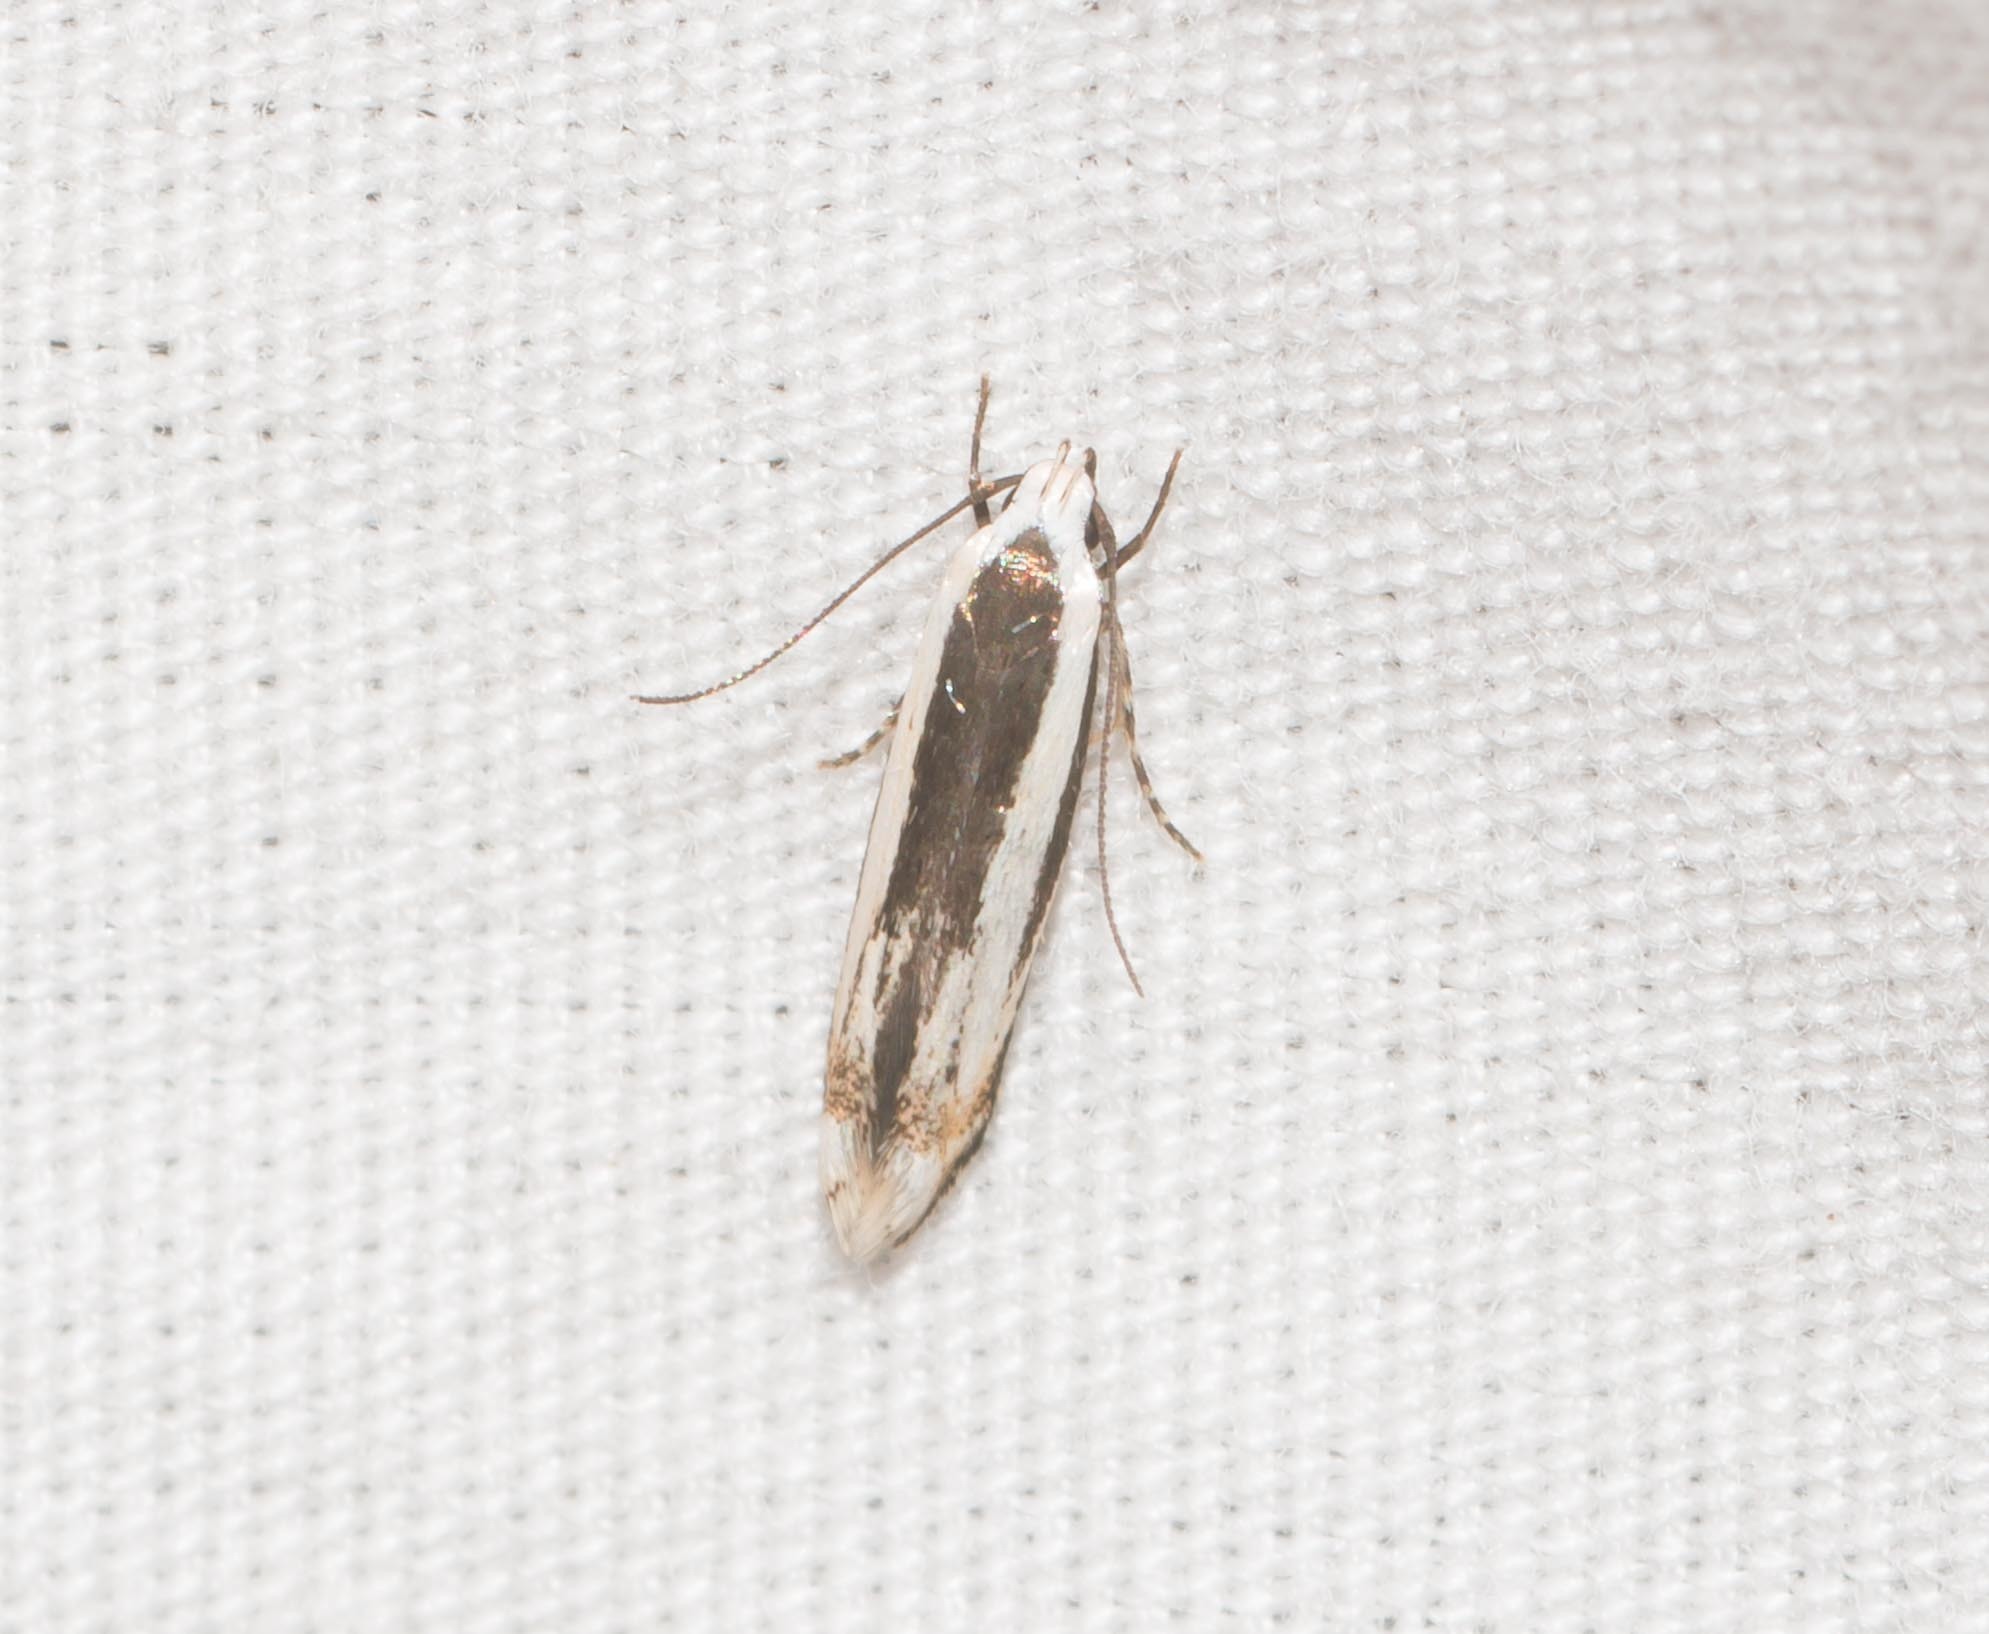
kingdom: Animalia
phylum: Arthropoda
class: Insecta
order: Lepidoptera
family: Cosmopterigidae
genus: Neelysia
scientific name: Neelysia alveata
